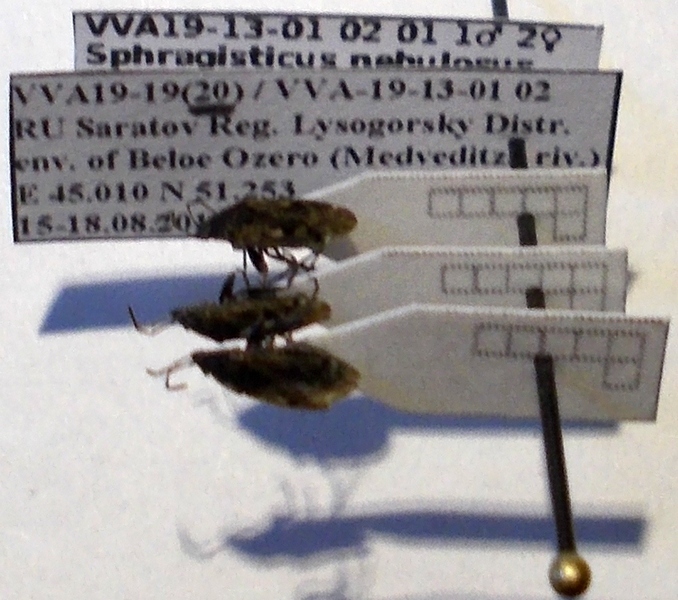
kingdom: Animalia
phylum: Arthropoda
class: Insecta
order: Hemiptera
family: Rhyparochromidae
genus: Sphragisticus
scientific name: Sphragisticus nebulosus
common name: Dirt-colored seed bug
